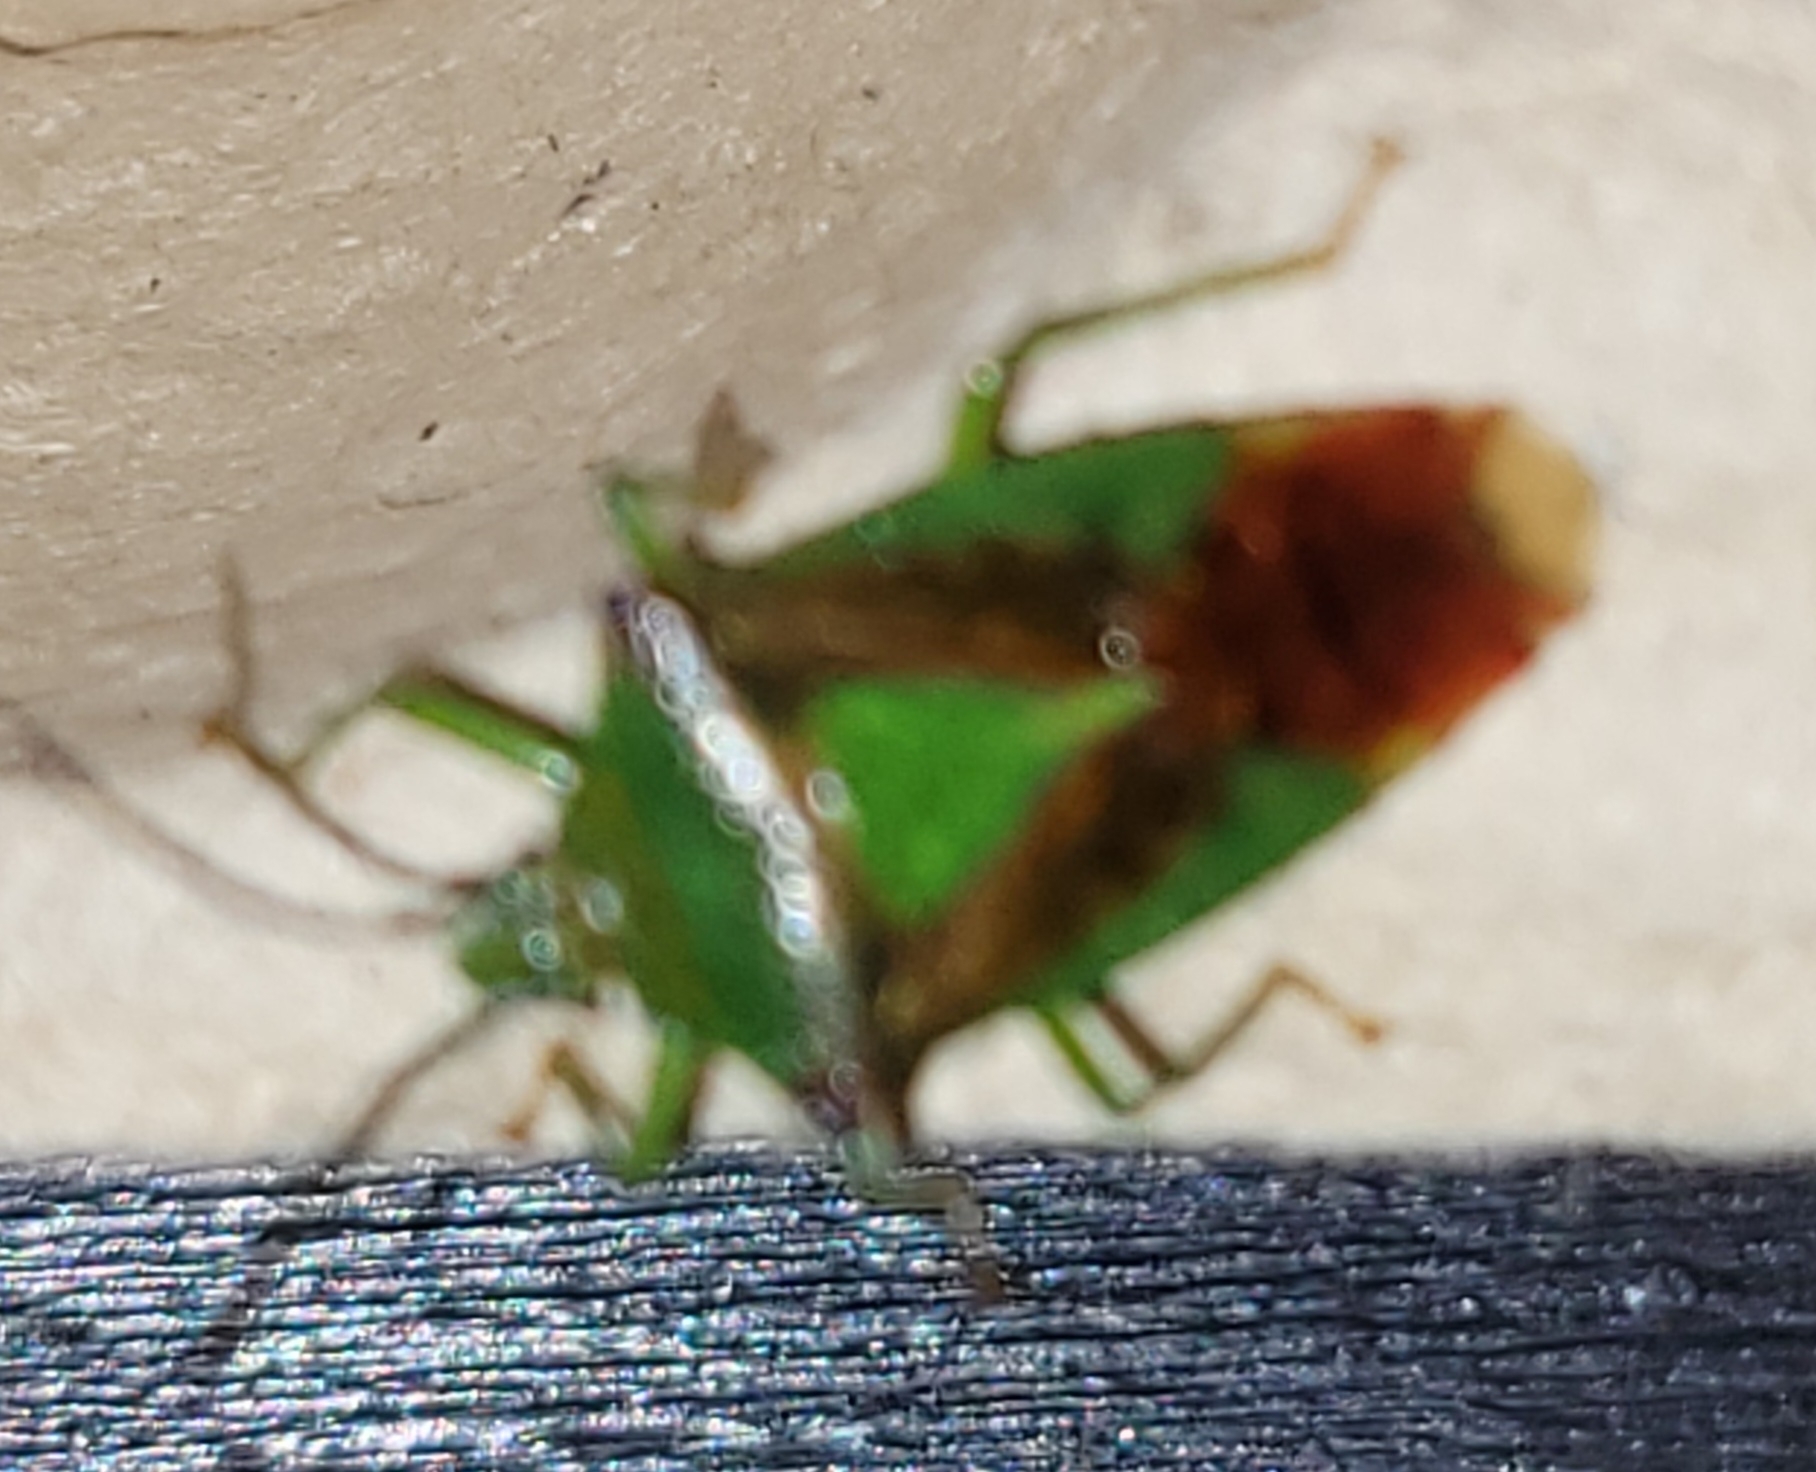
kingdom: Animalia
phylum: Arthropoda
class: Insecta
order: Hemiptera
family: Acanthosomatidae
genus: Acanthosoma
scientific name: Acanthosoma haemorrhoidale
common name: Hawthorn shieldbug
